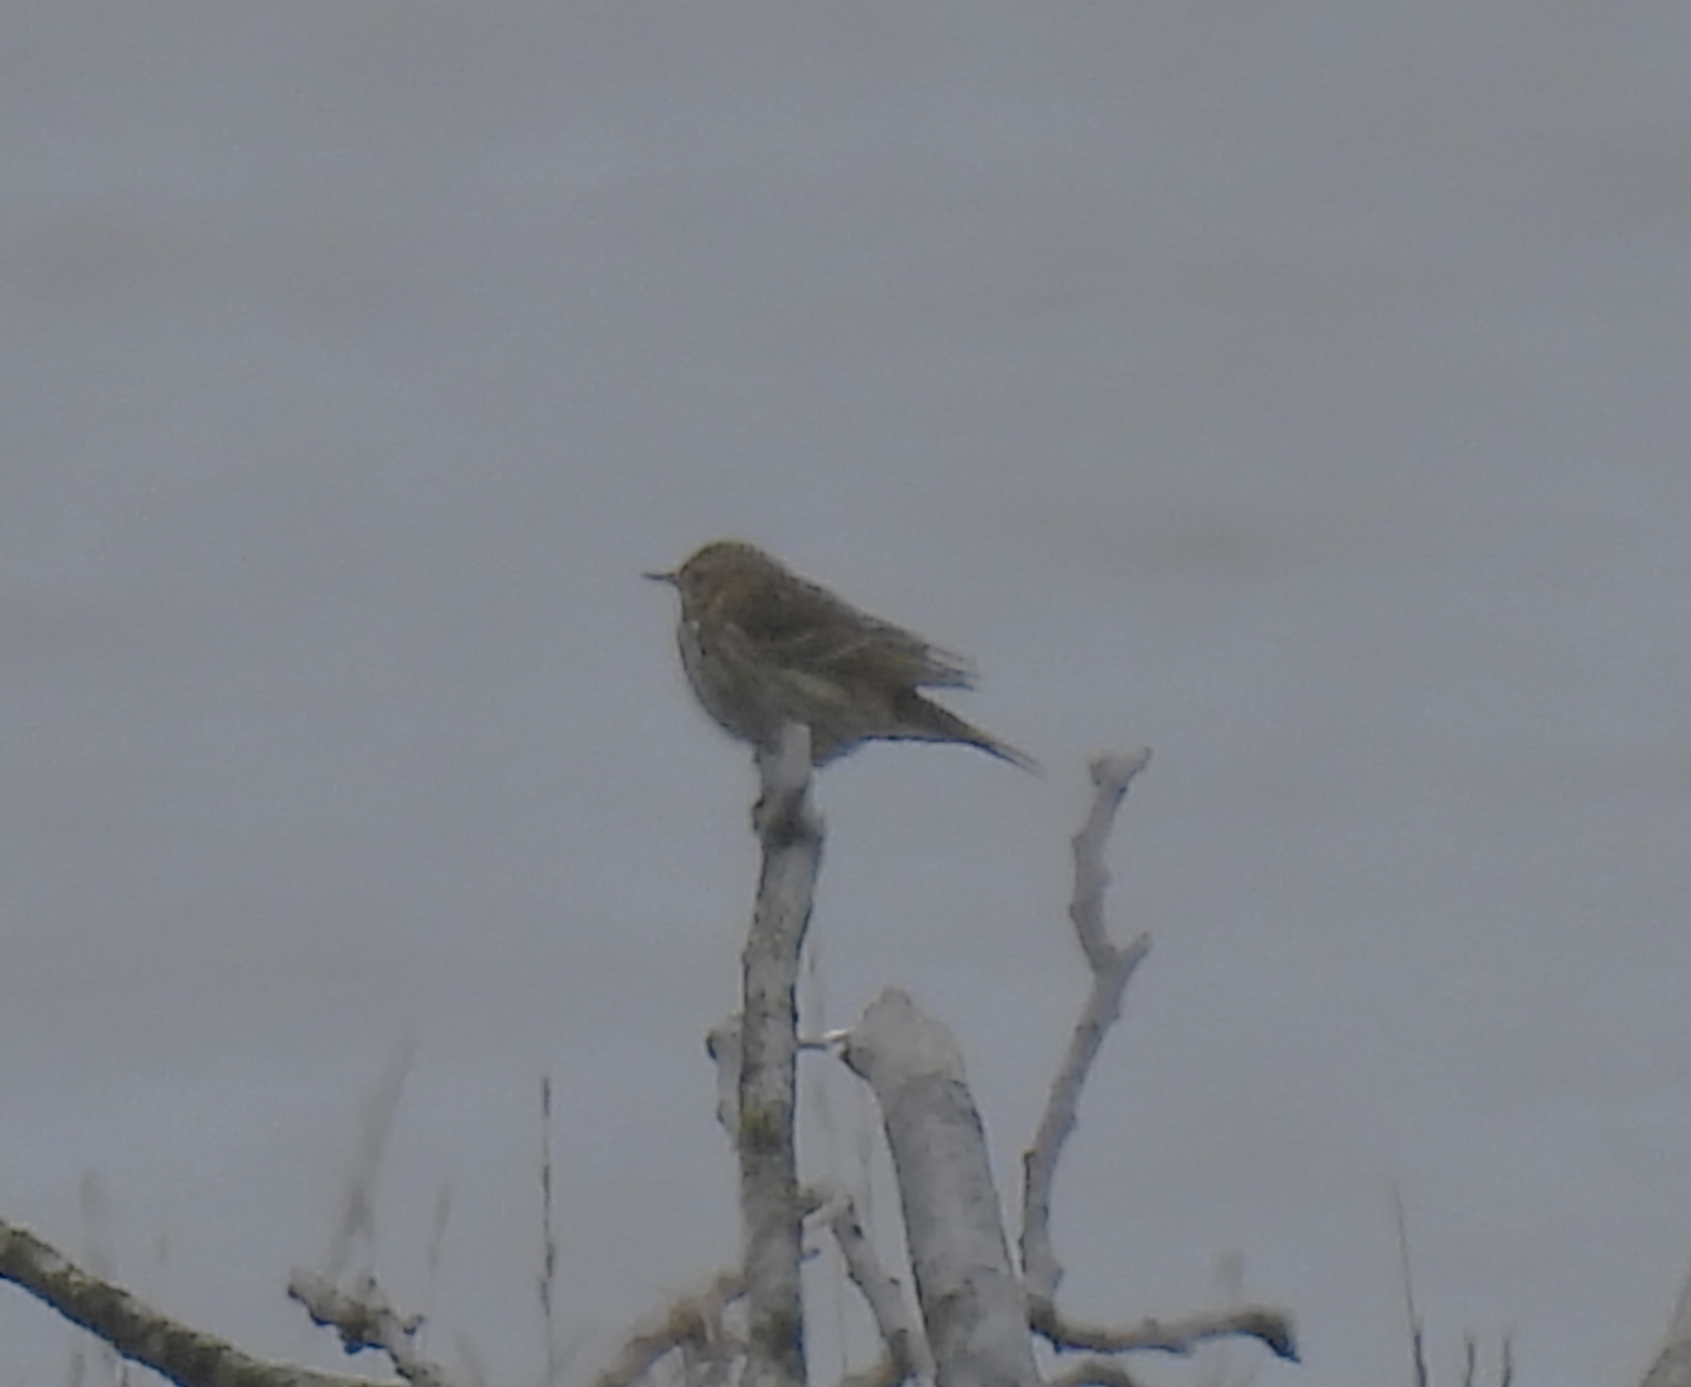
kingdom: Animalia
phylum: Chordata
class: Aves
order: Passeriformes
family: Motacillidae
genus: Anthus
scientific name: Anthus pratensis
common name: Meadow pipit
